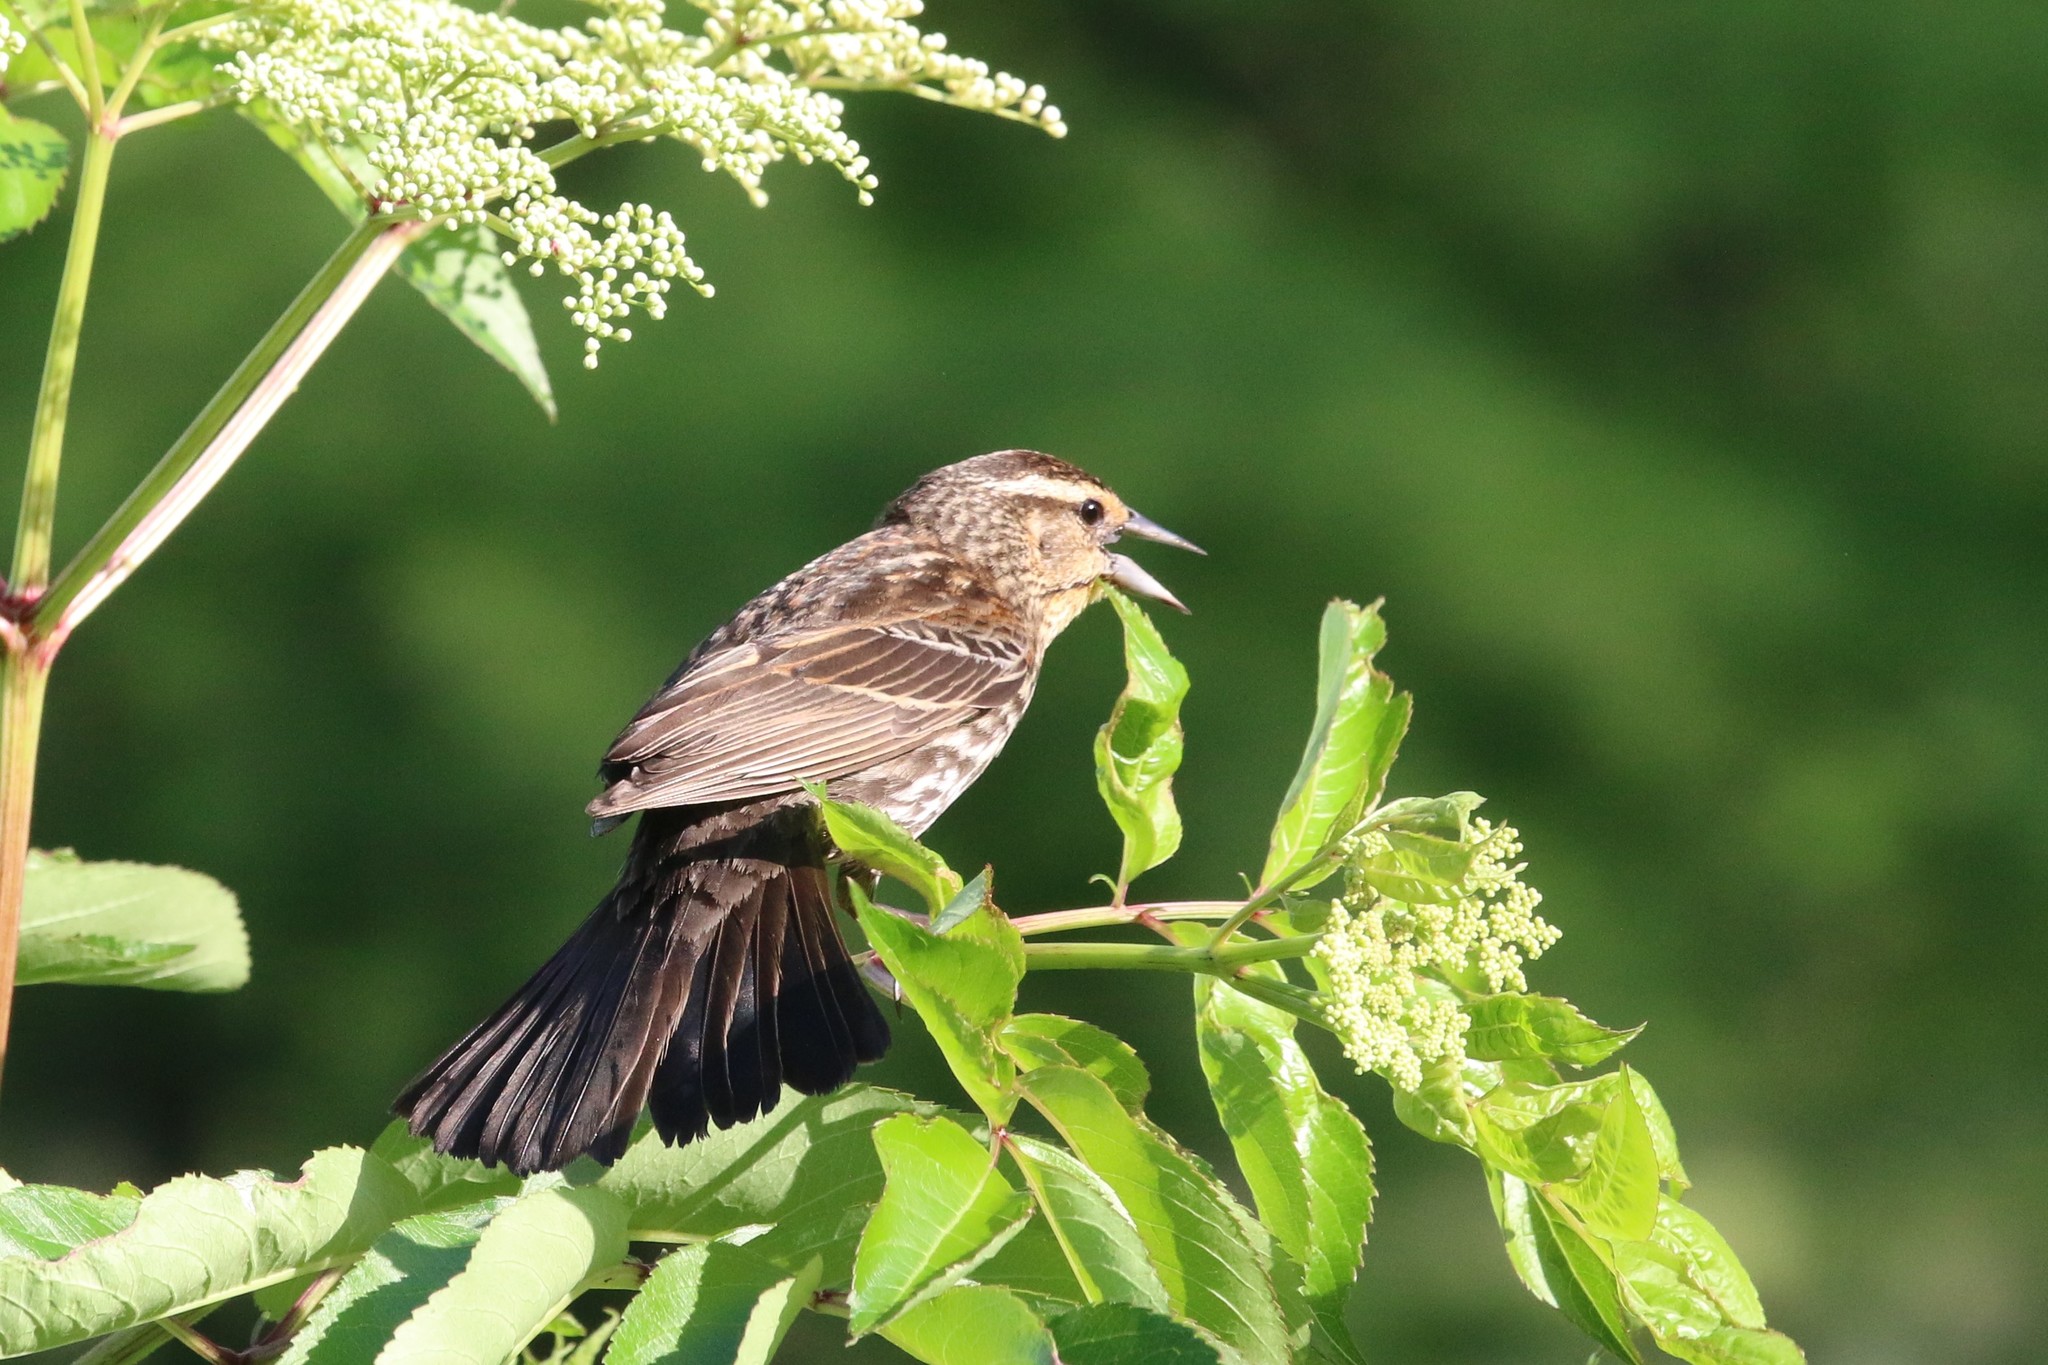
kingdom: Animalia
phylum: Chordata
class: Aves
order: Passeriformes
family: Icteridae
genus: Agelaius
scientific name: Agelaius phoeniceus
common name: Red-winged blackbird
